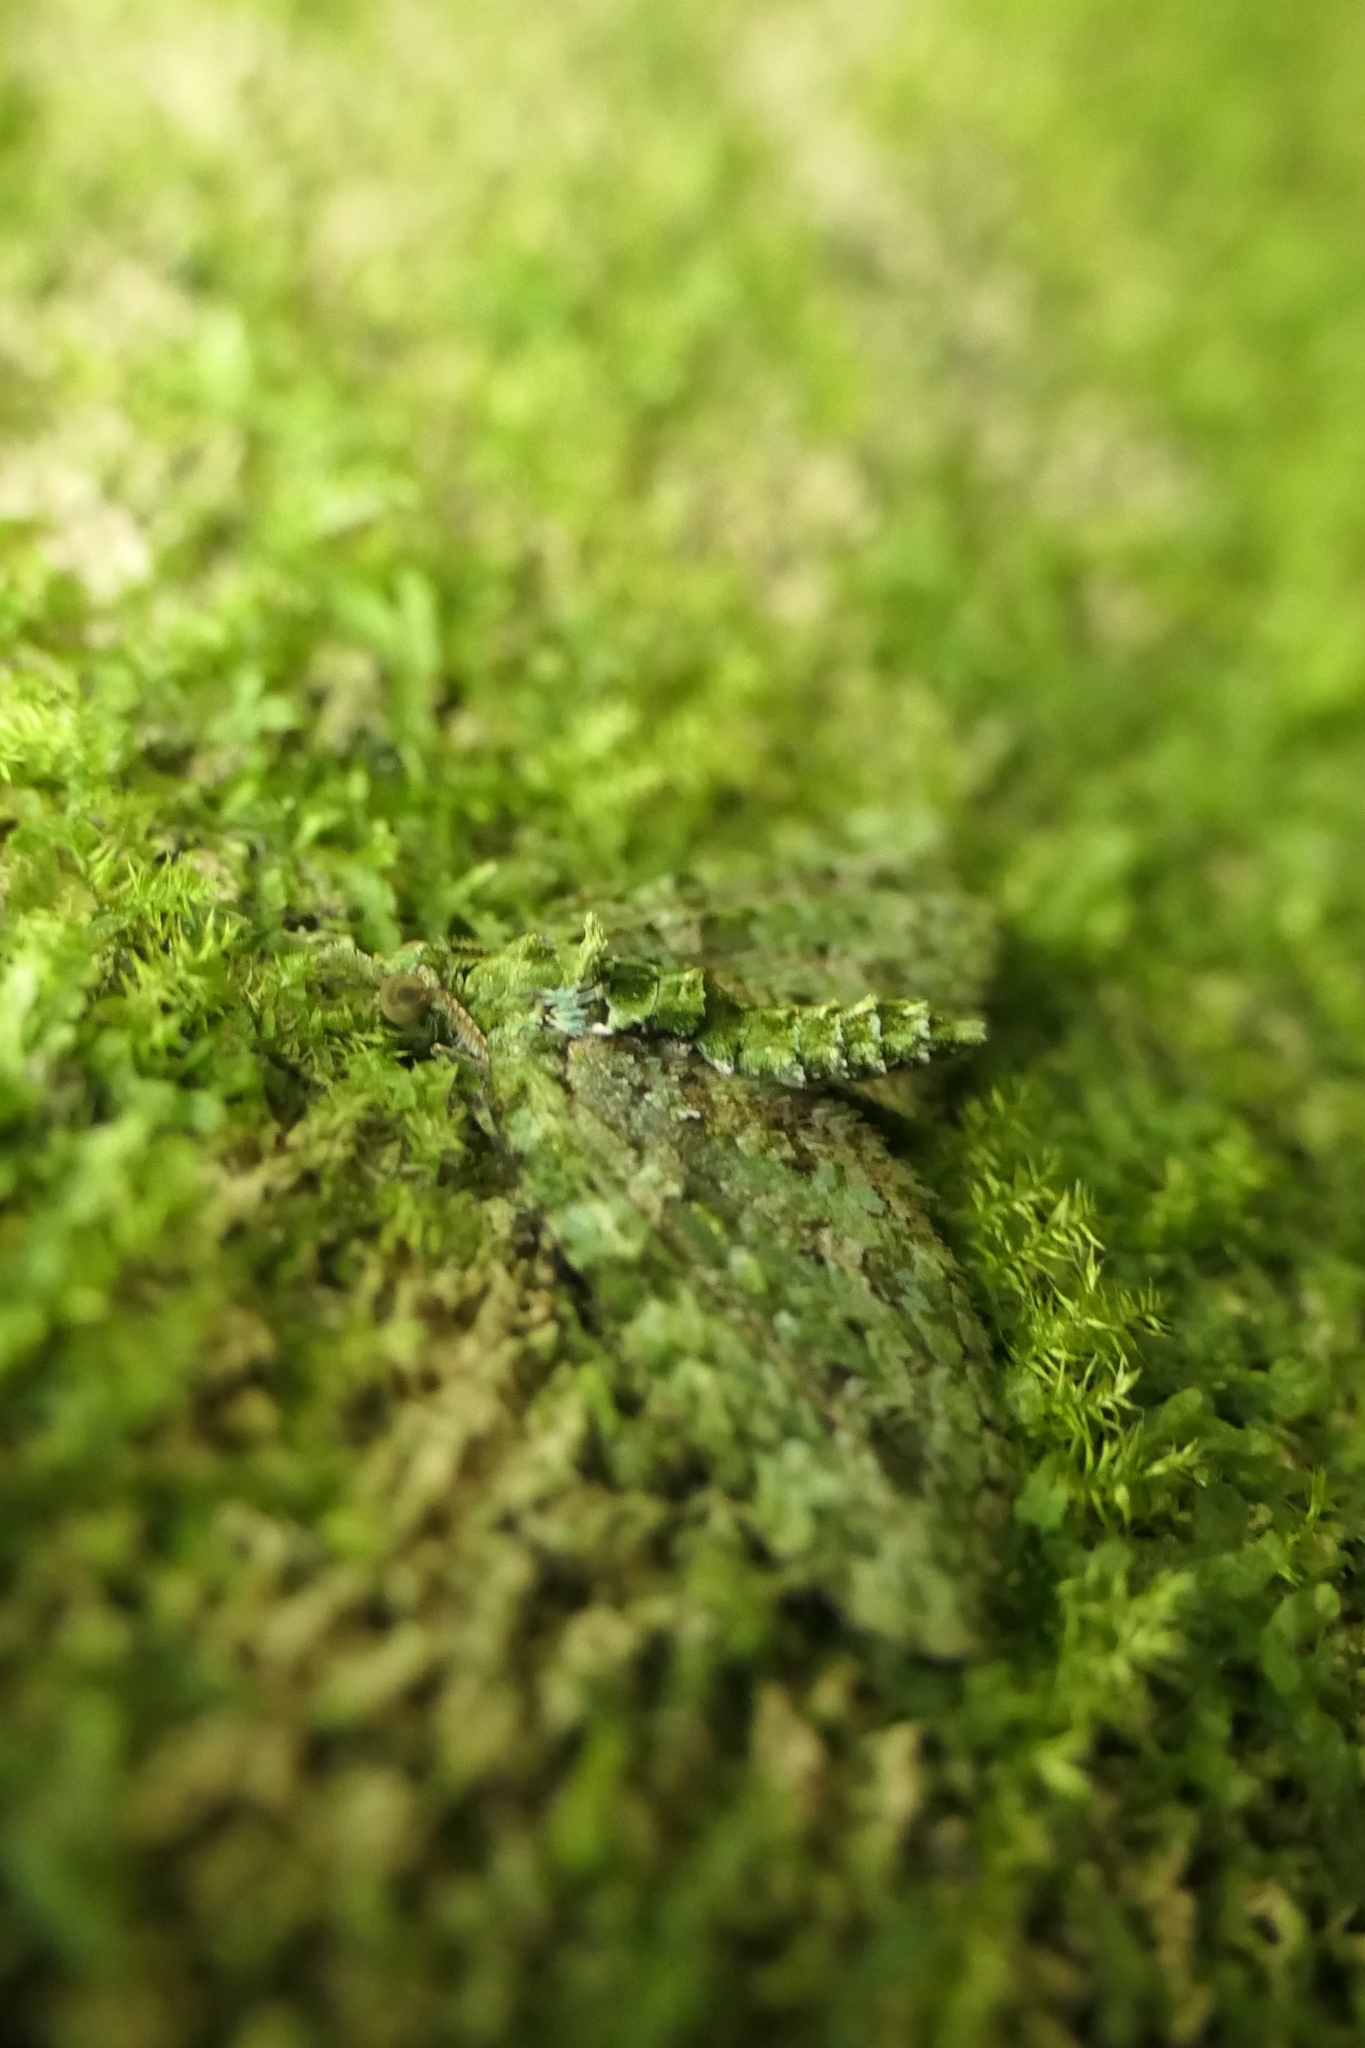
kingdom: Animalia
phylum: Arthropoda
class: Insecta
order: Lepidoptera
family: Geometridae
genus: Pasiphila
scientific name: Pasiphila muscosata
